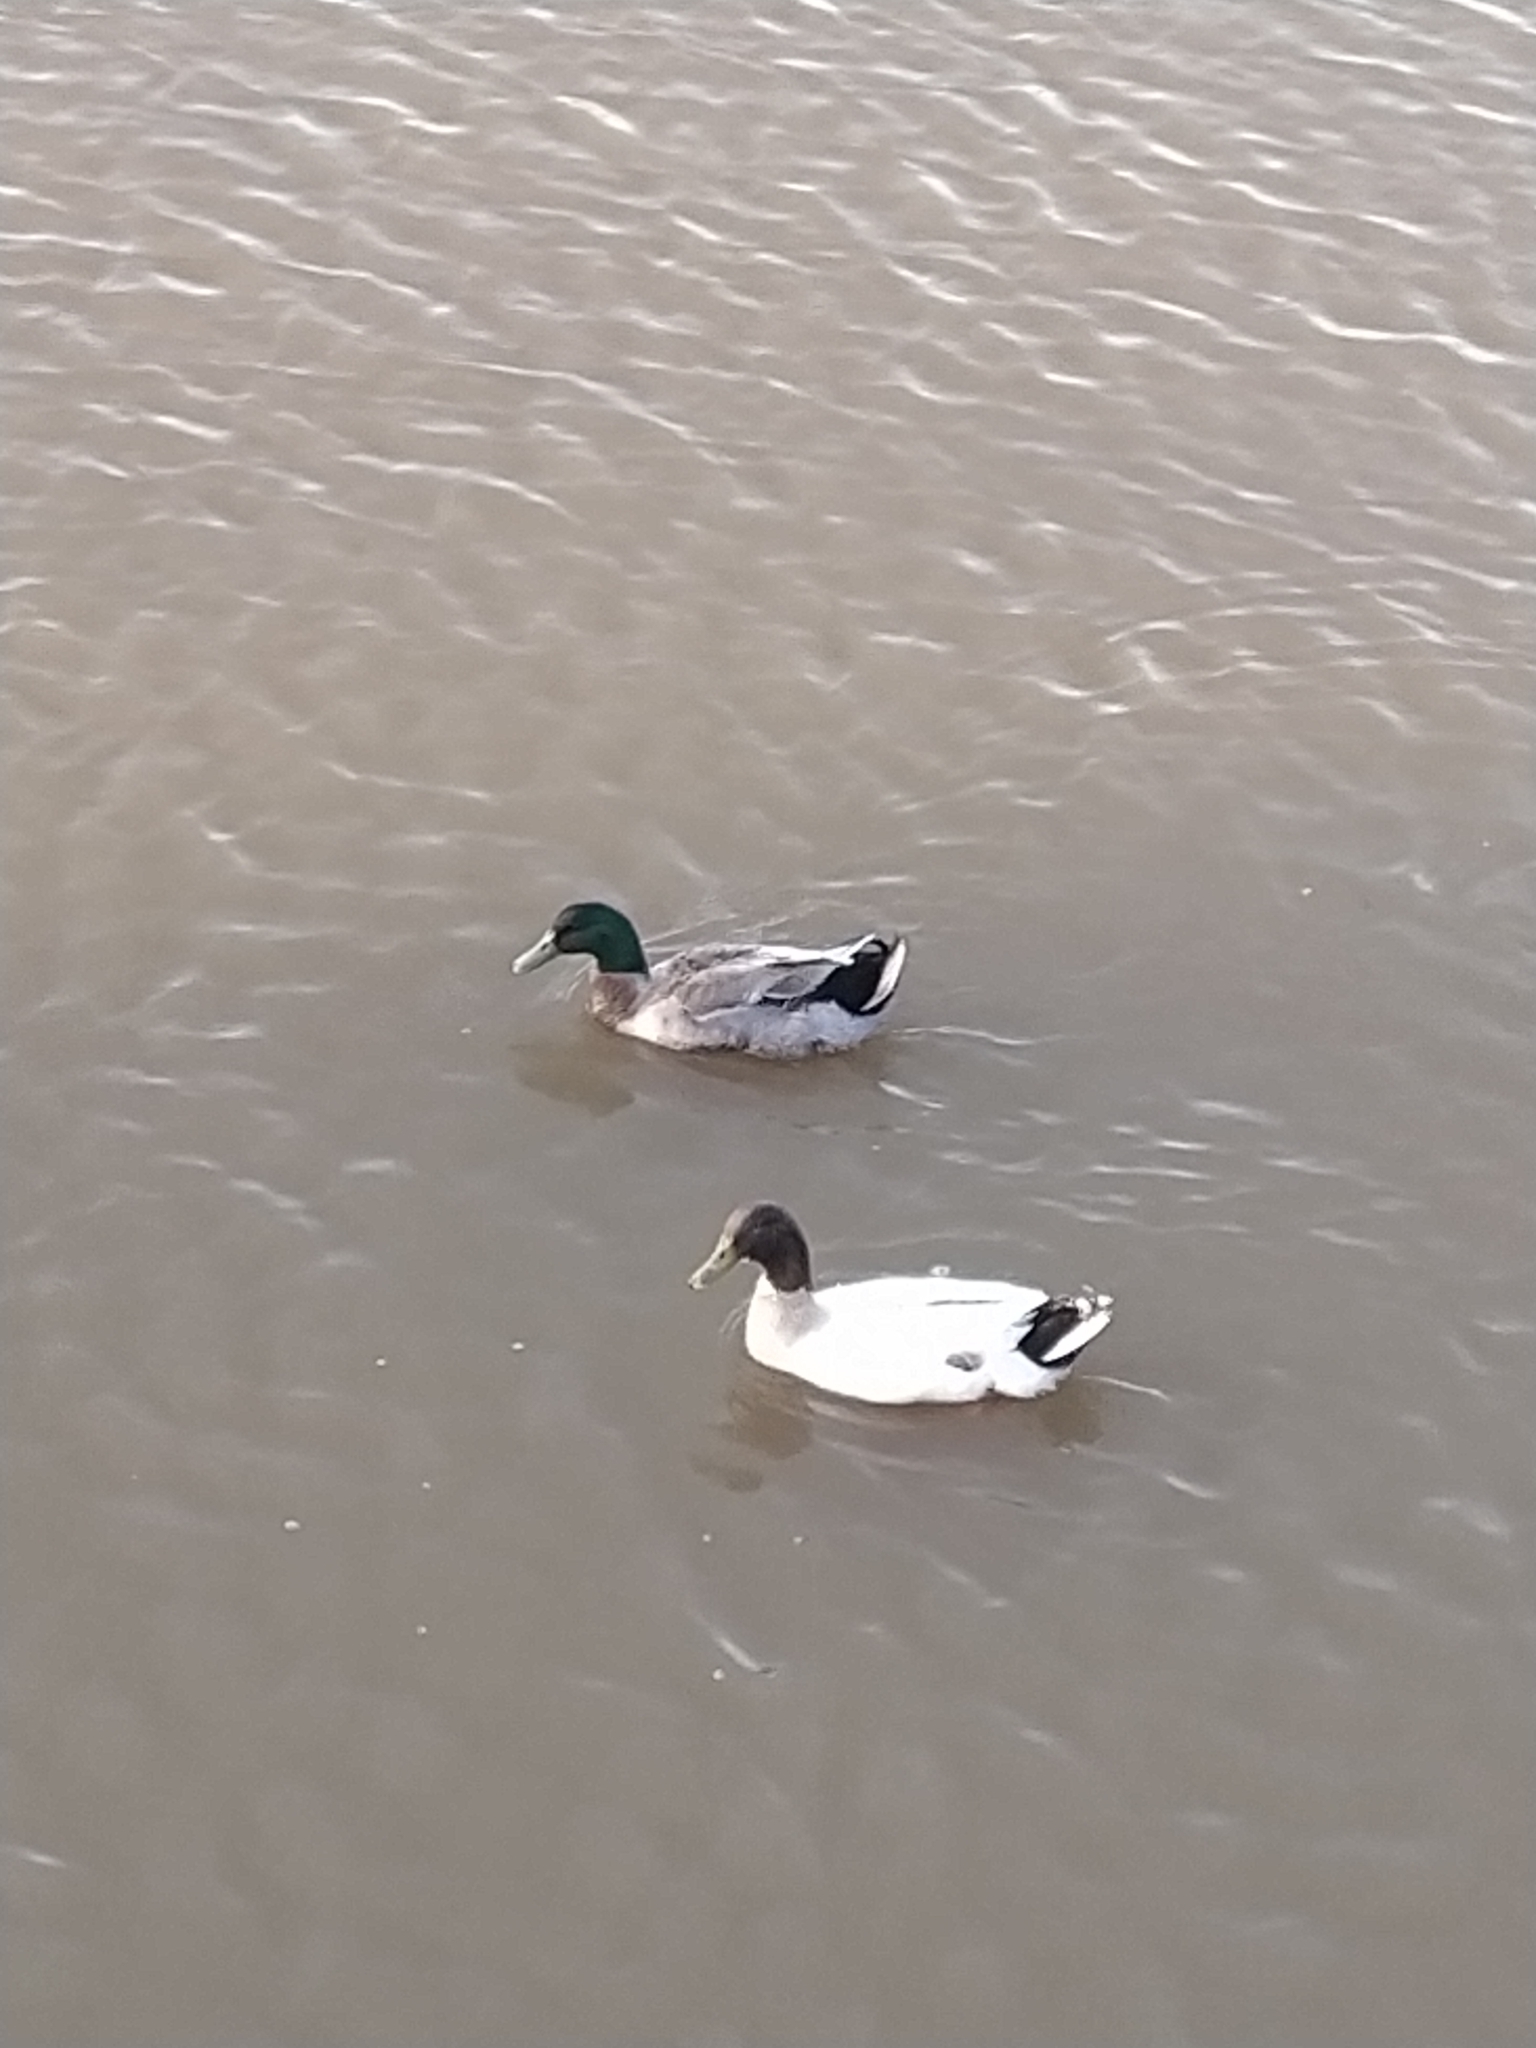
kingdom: Animalia
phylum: Chordata
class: Aves
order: Anseriformes
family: Anatidae
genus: Anas
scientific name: Anas platyrhynchos
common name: Mallard
